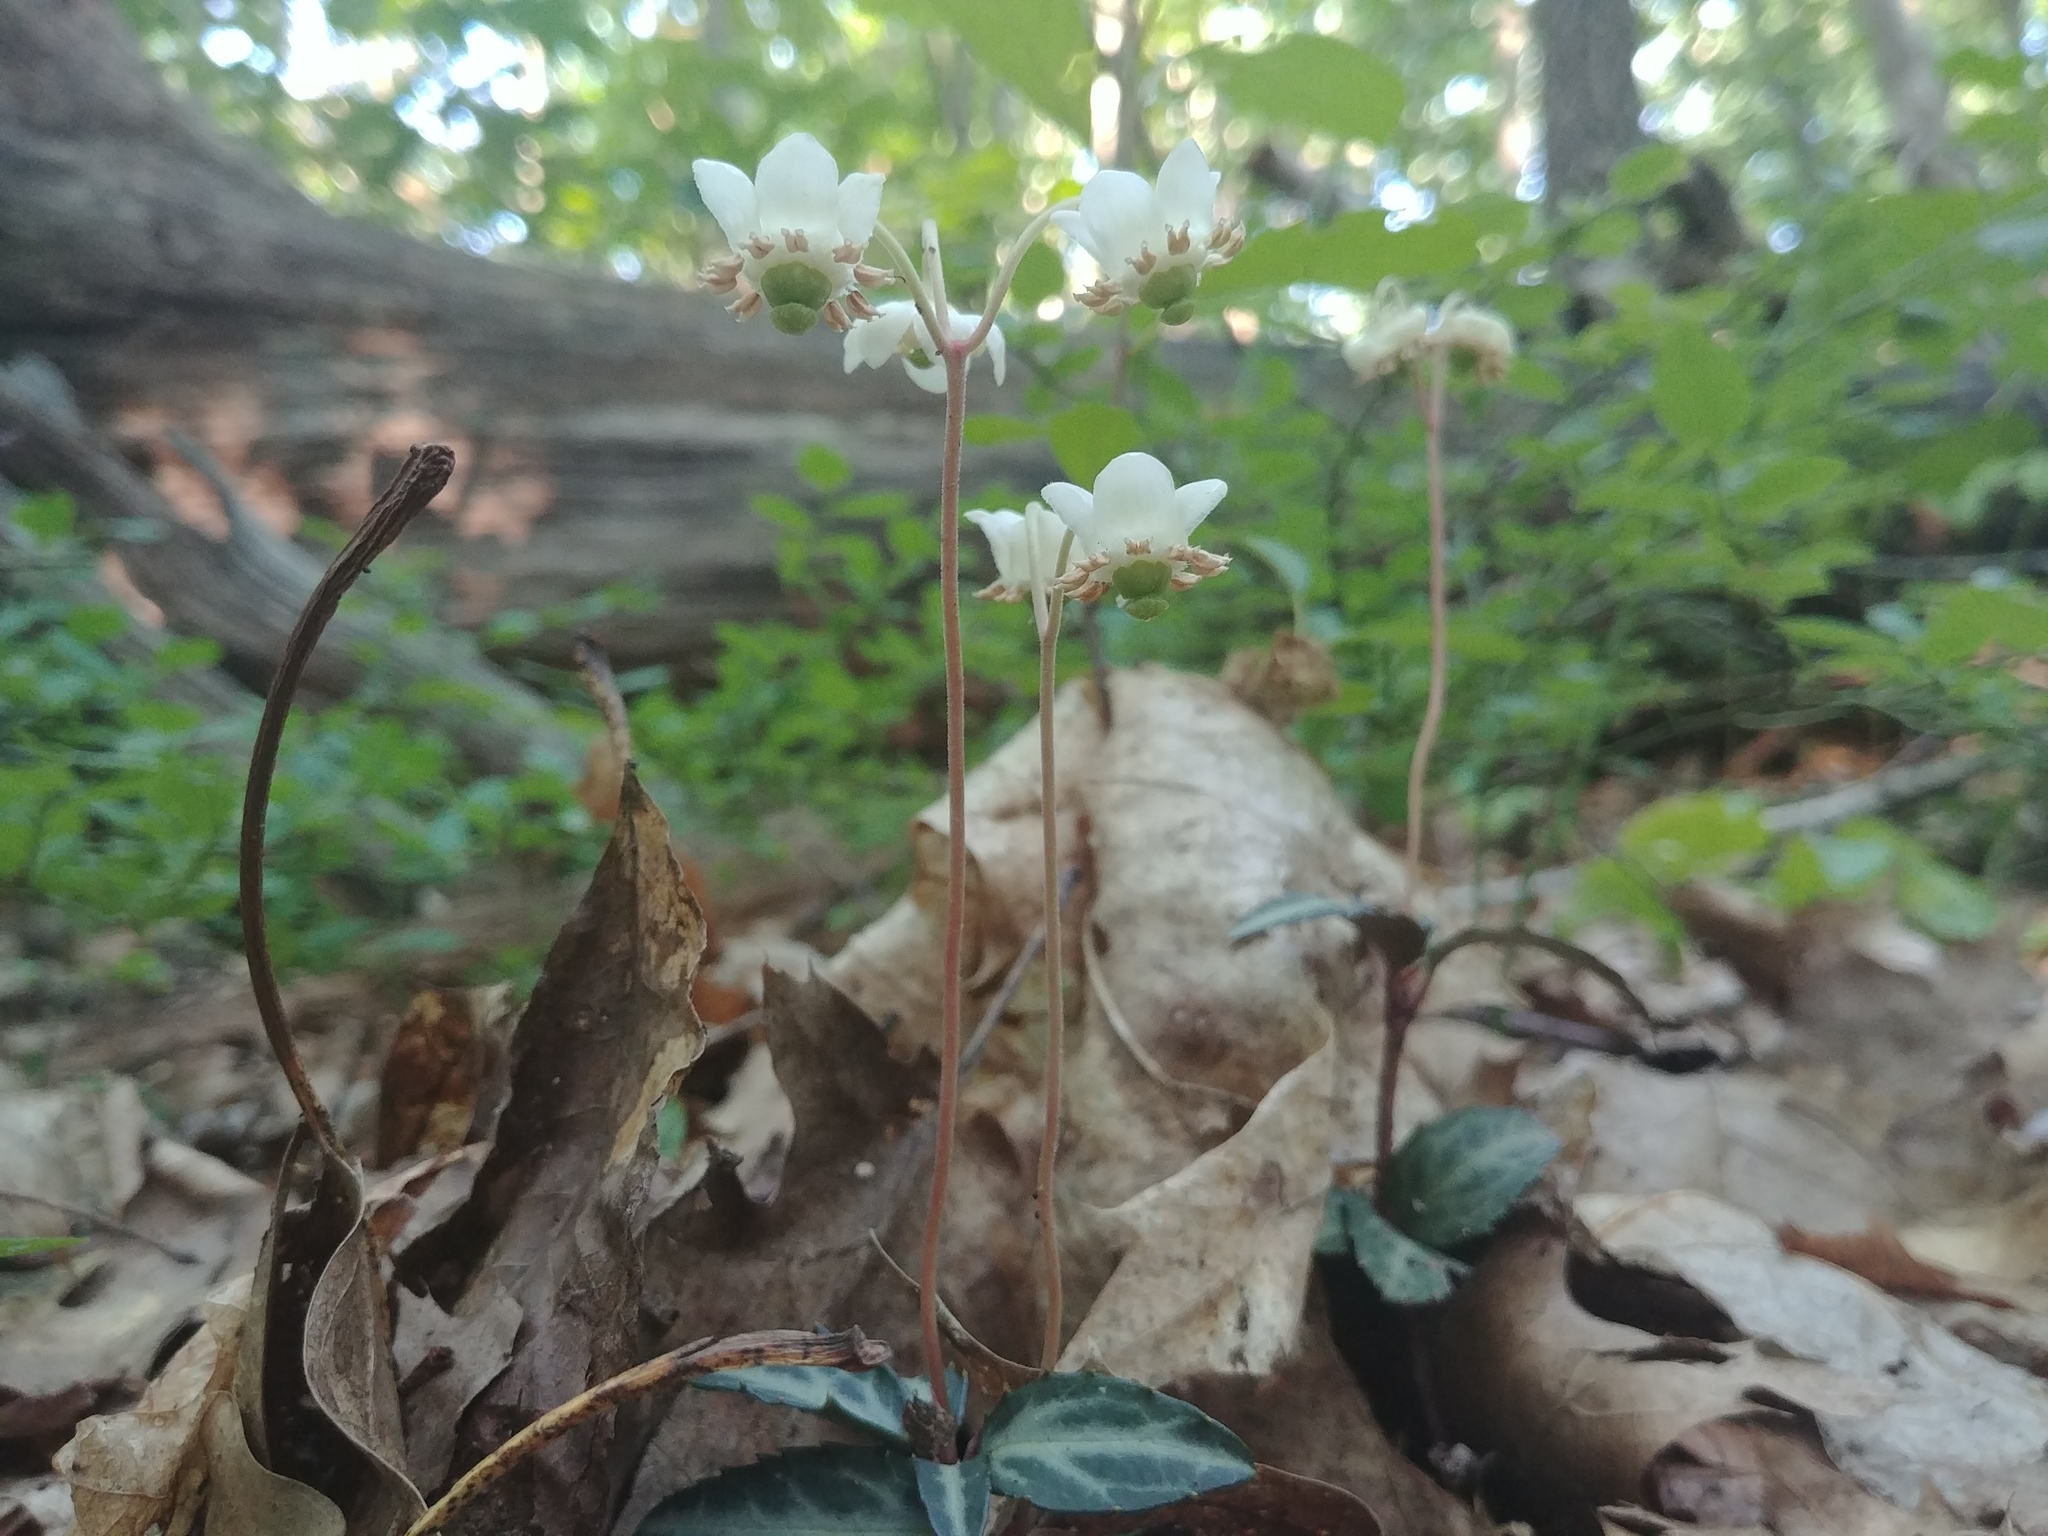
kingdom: Plantae
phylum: Tracheophyta
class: Magnoliopsida
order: Ericales
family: Ericaceae
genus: Chimaphila
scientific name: Chimaphila maculata
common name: Spotted pipsissewa
